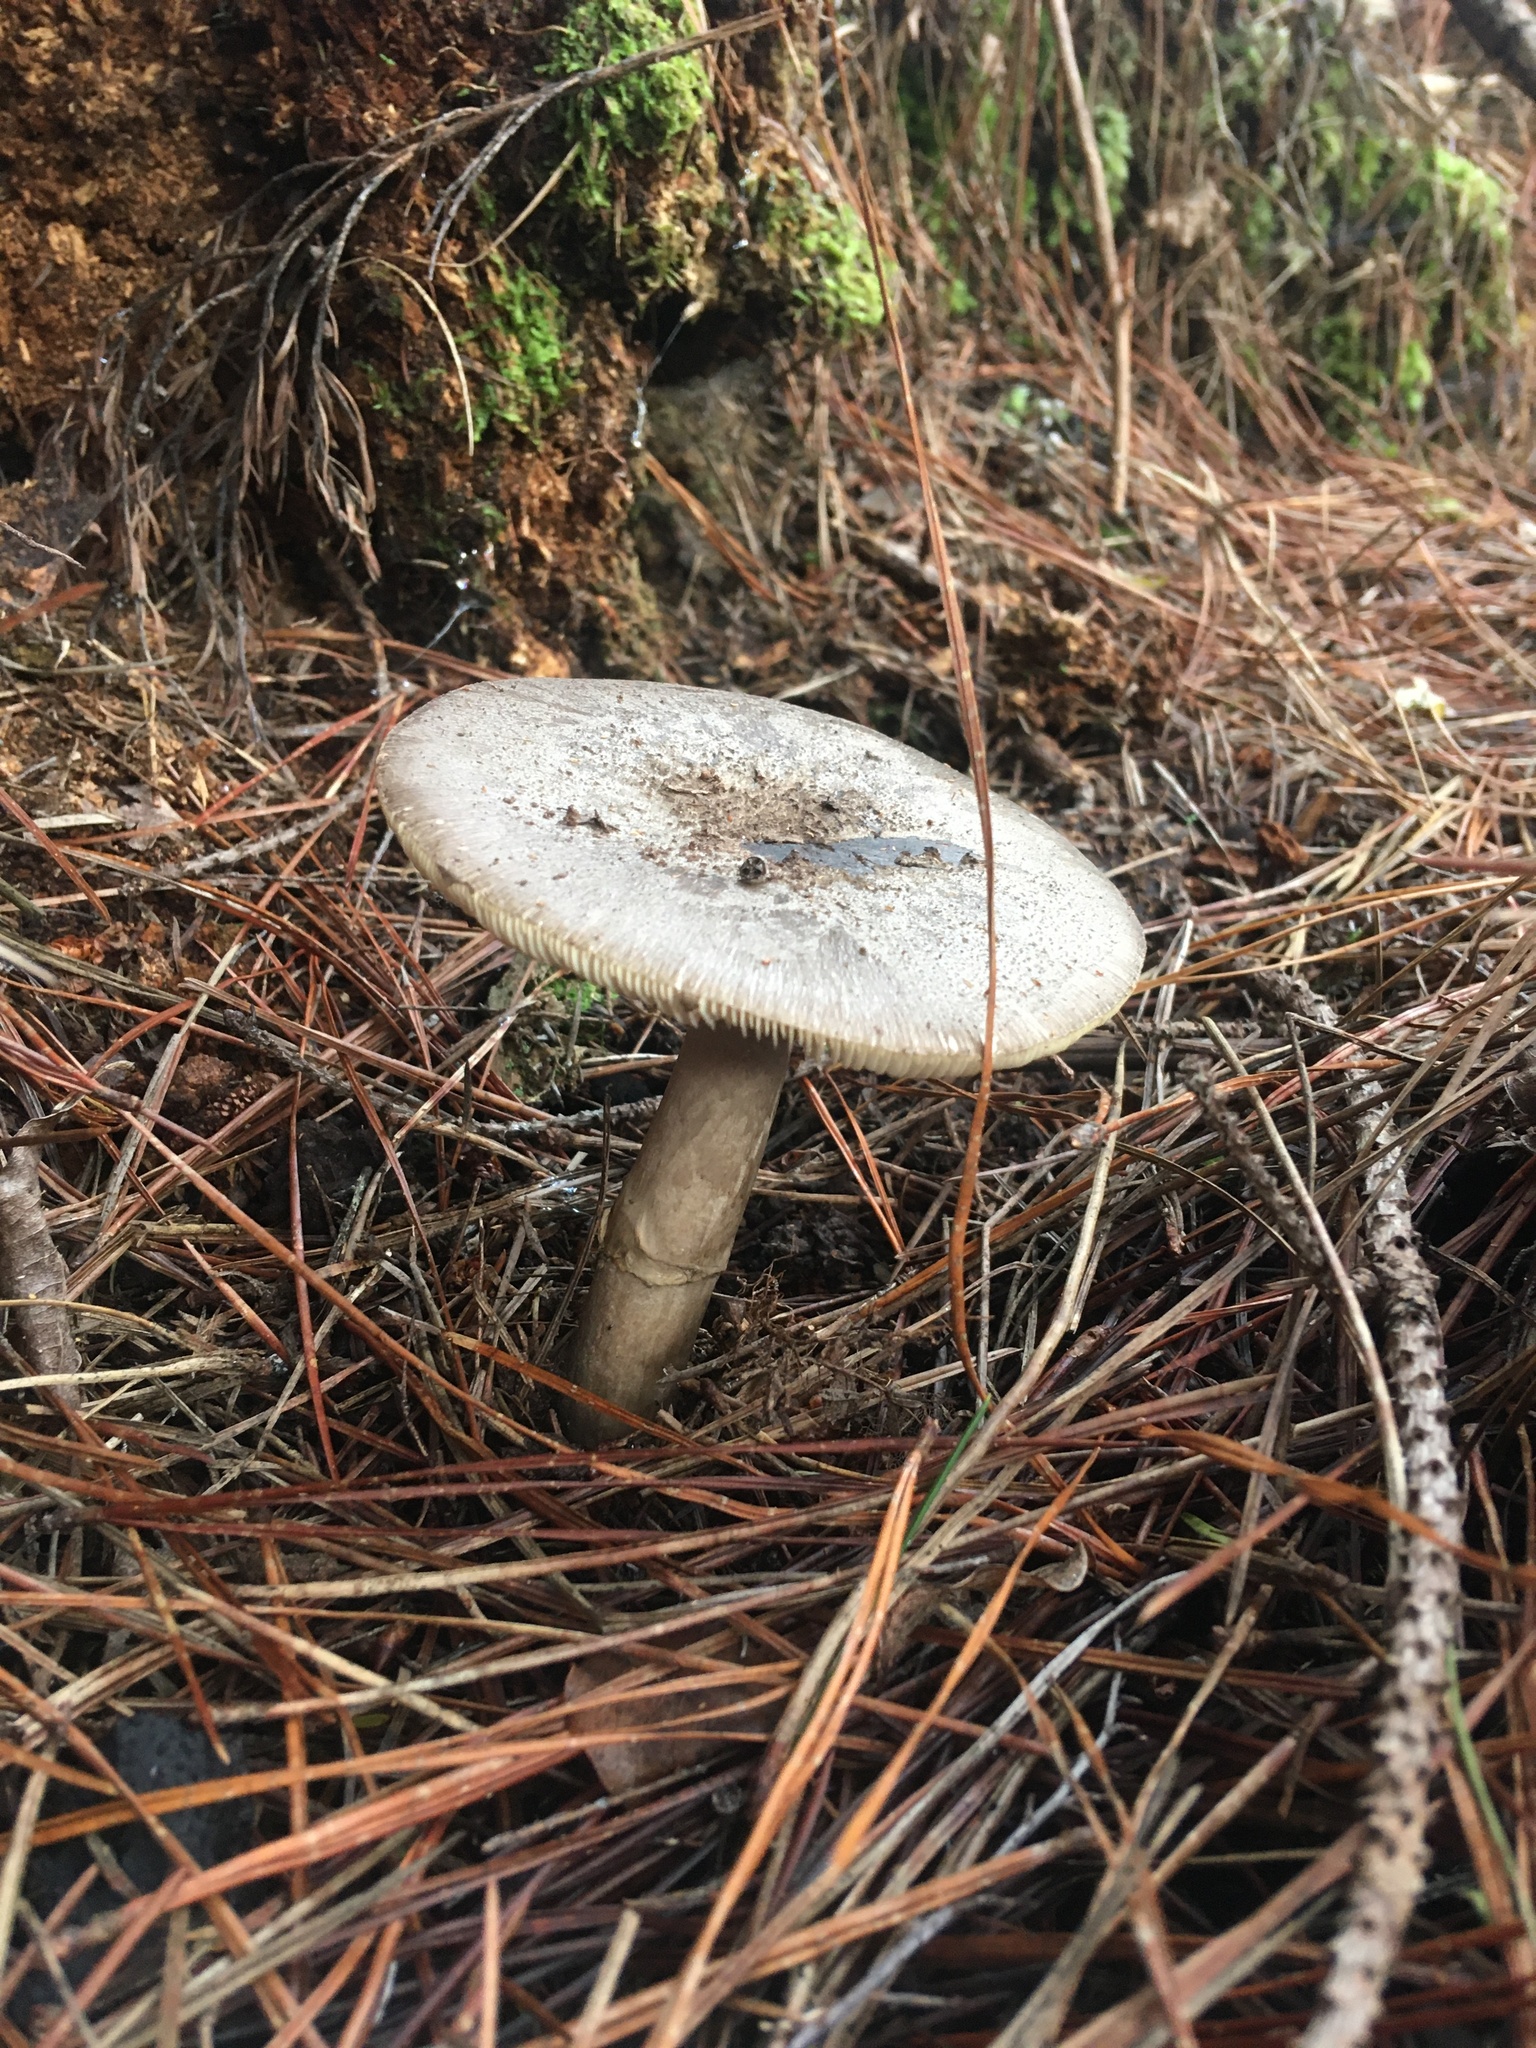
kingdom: Fungi
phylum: Basidiomycota
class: Agaricomycetes
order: Agaricales
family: Amanitaceae
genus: Amanita
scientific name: Amanita nothofagi
